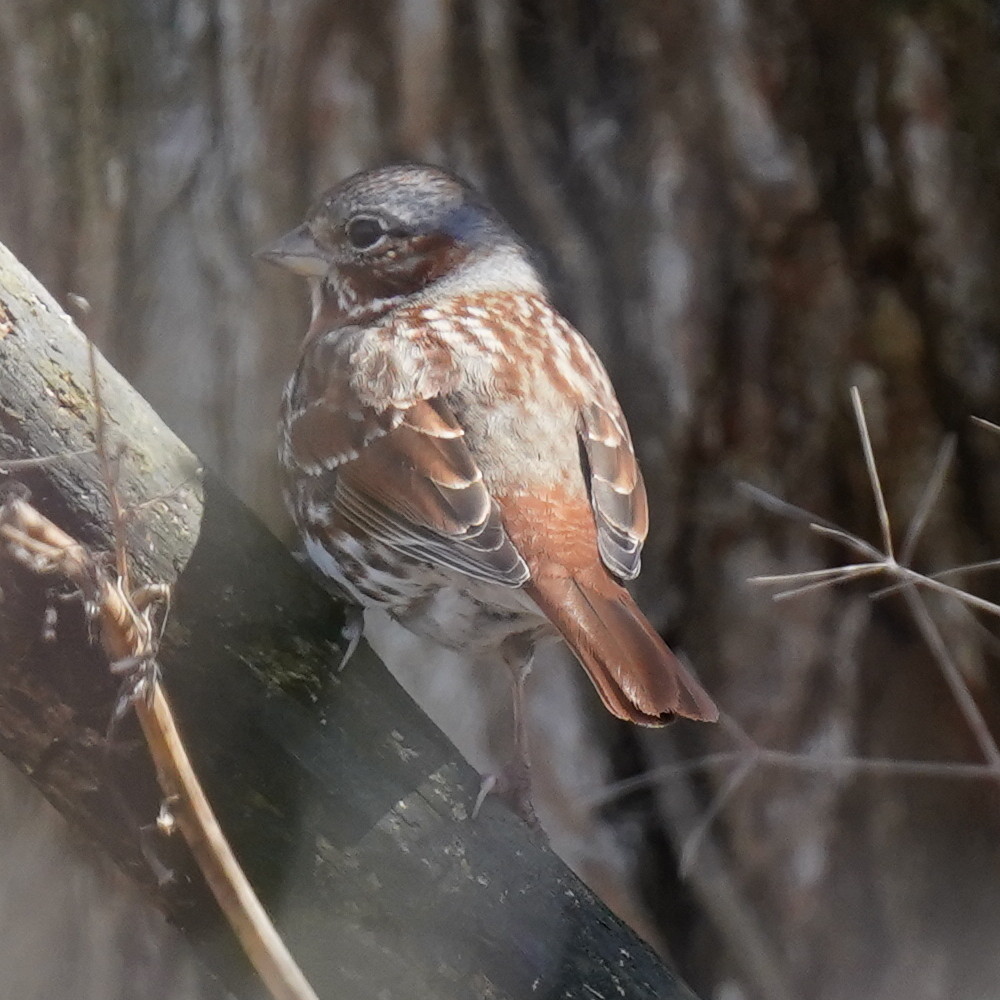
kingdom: Animalia
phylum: Chordata
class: Aves
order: Passeriformes
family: Passerellidae
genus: Passerella
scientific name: Passerella iliaca
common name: Fox sparrow
